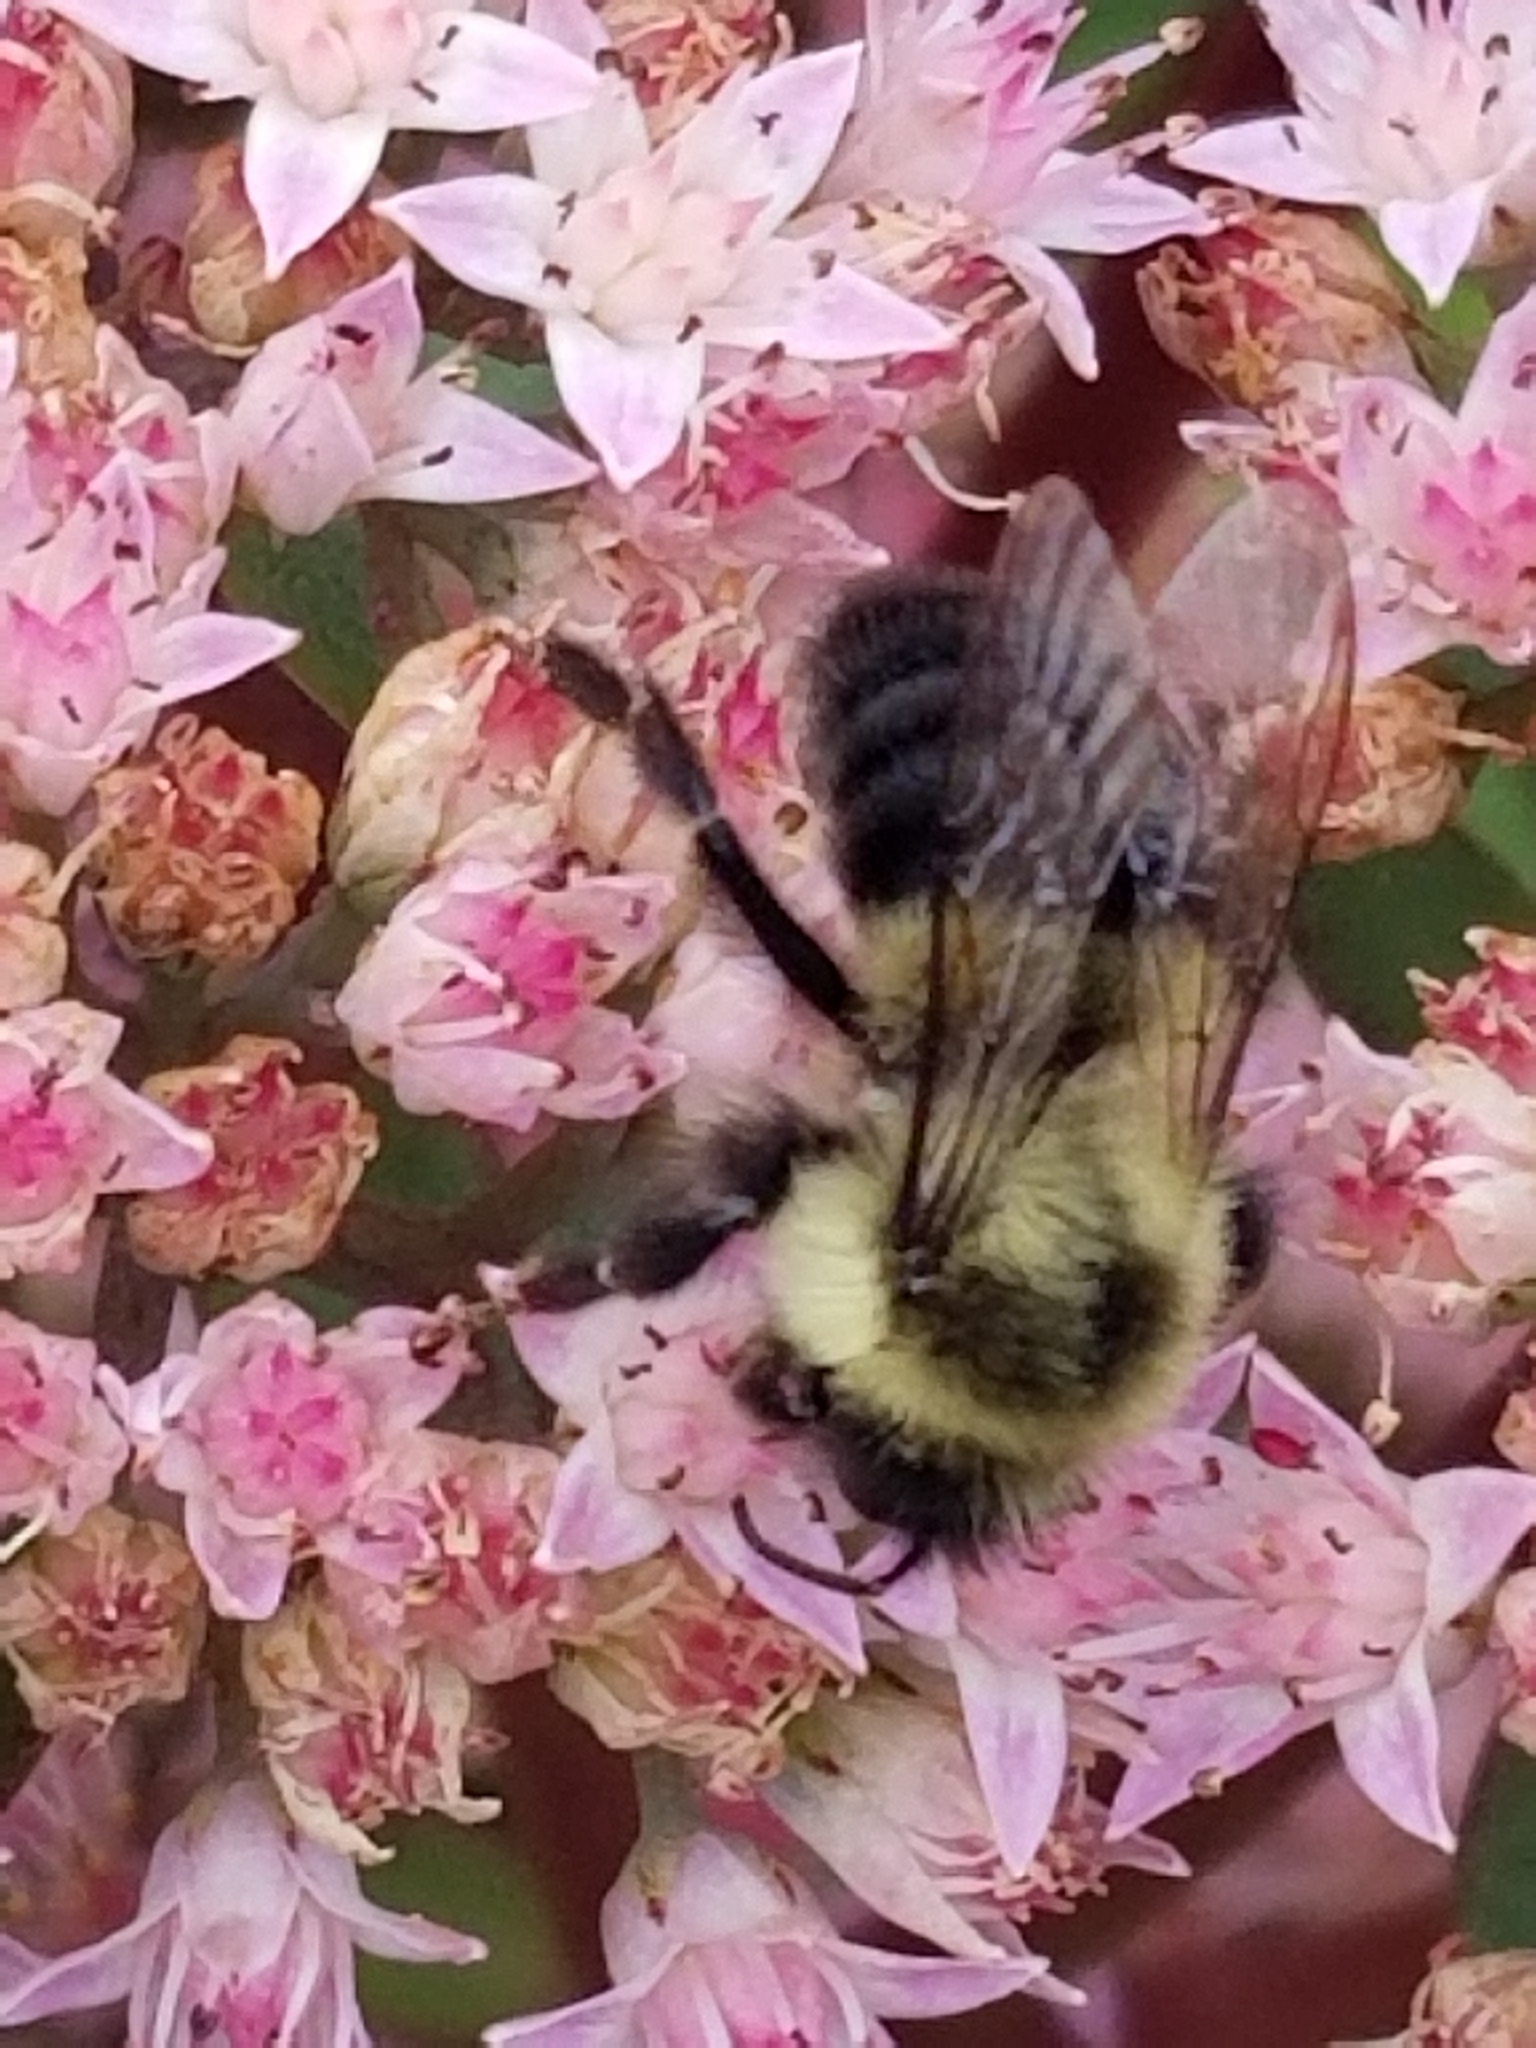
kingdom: Animalia
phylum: Arthropoda
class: Insecta
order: Hymenoptera
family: Apidae
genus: Bombus
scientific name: Bombus impatiens
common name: Common eastern bumble bee
